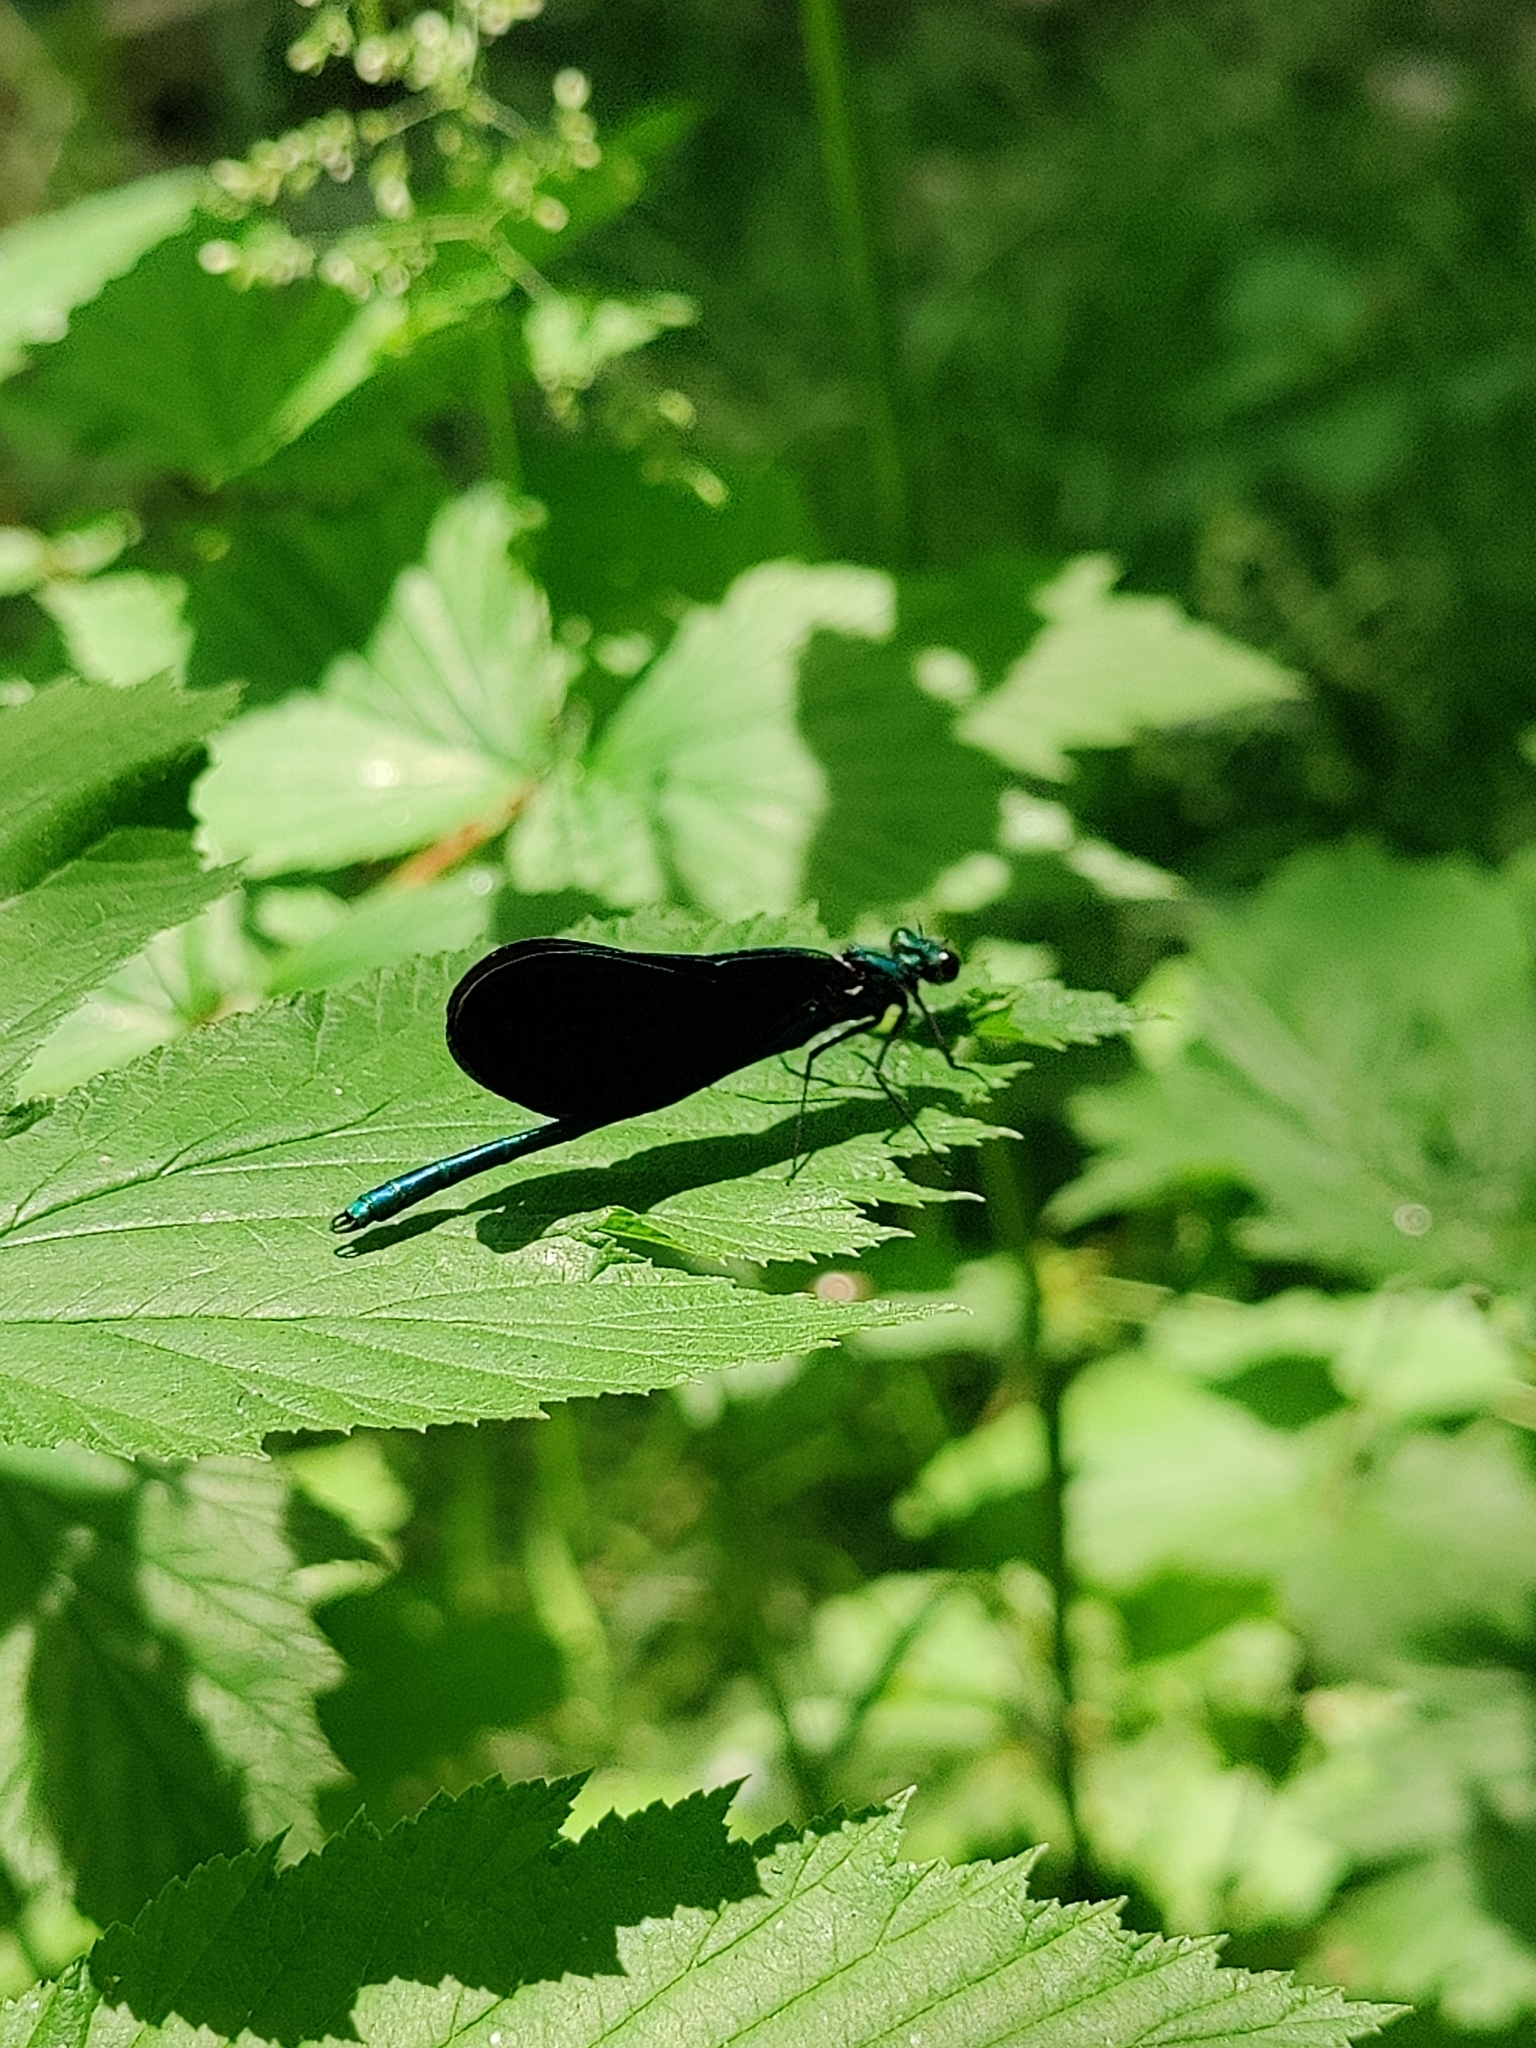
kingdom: Animalia
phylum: Arthropoda
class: Insecta
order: Odonata
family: Calopterygidae
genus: Calopteryx
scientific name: Calopteryx virgo
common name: Beautiful demoiselle
